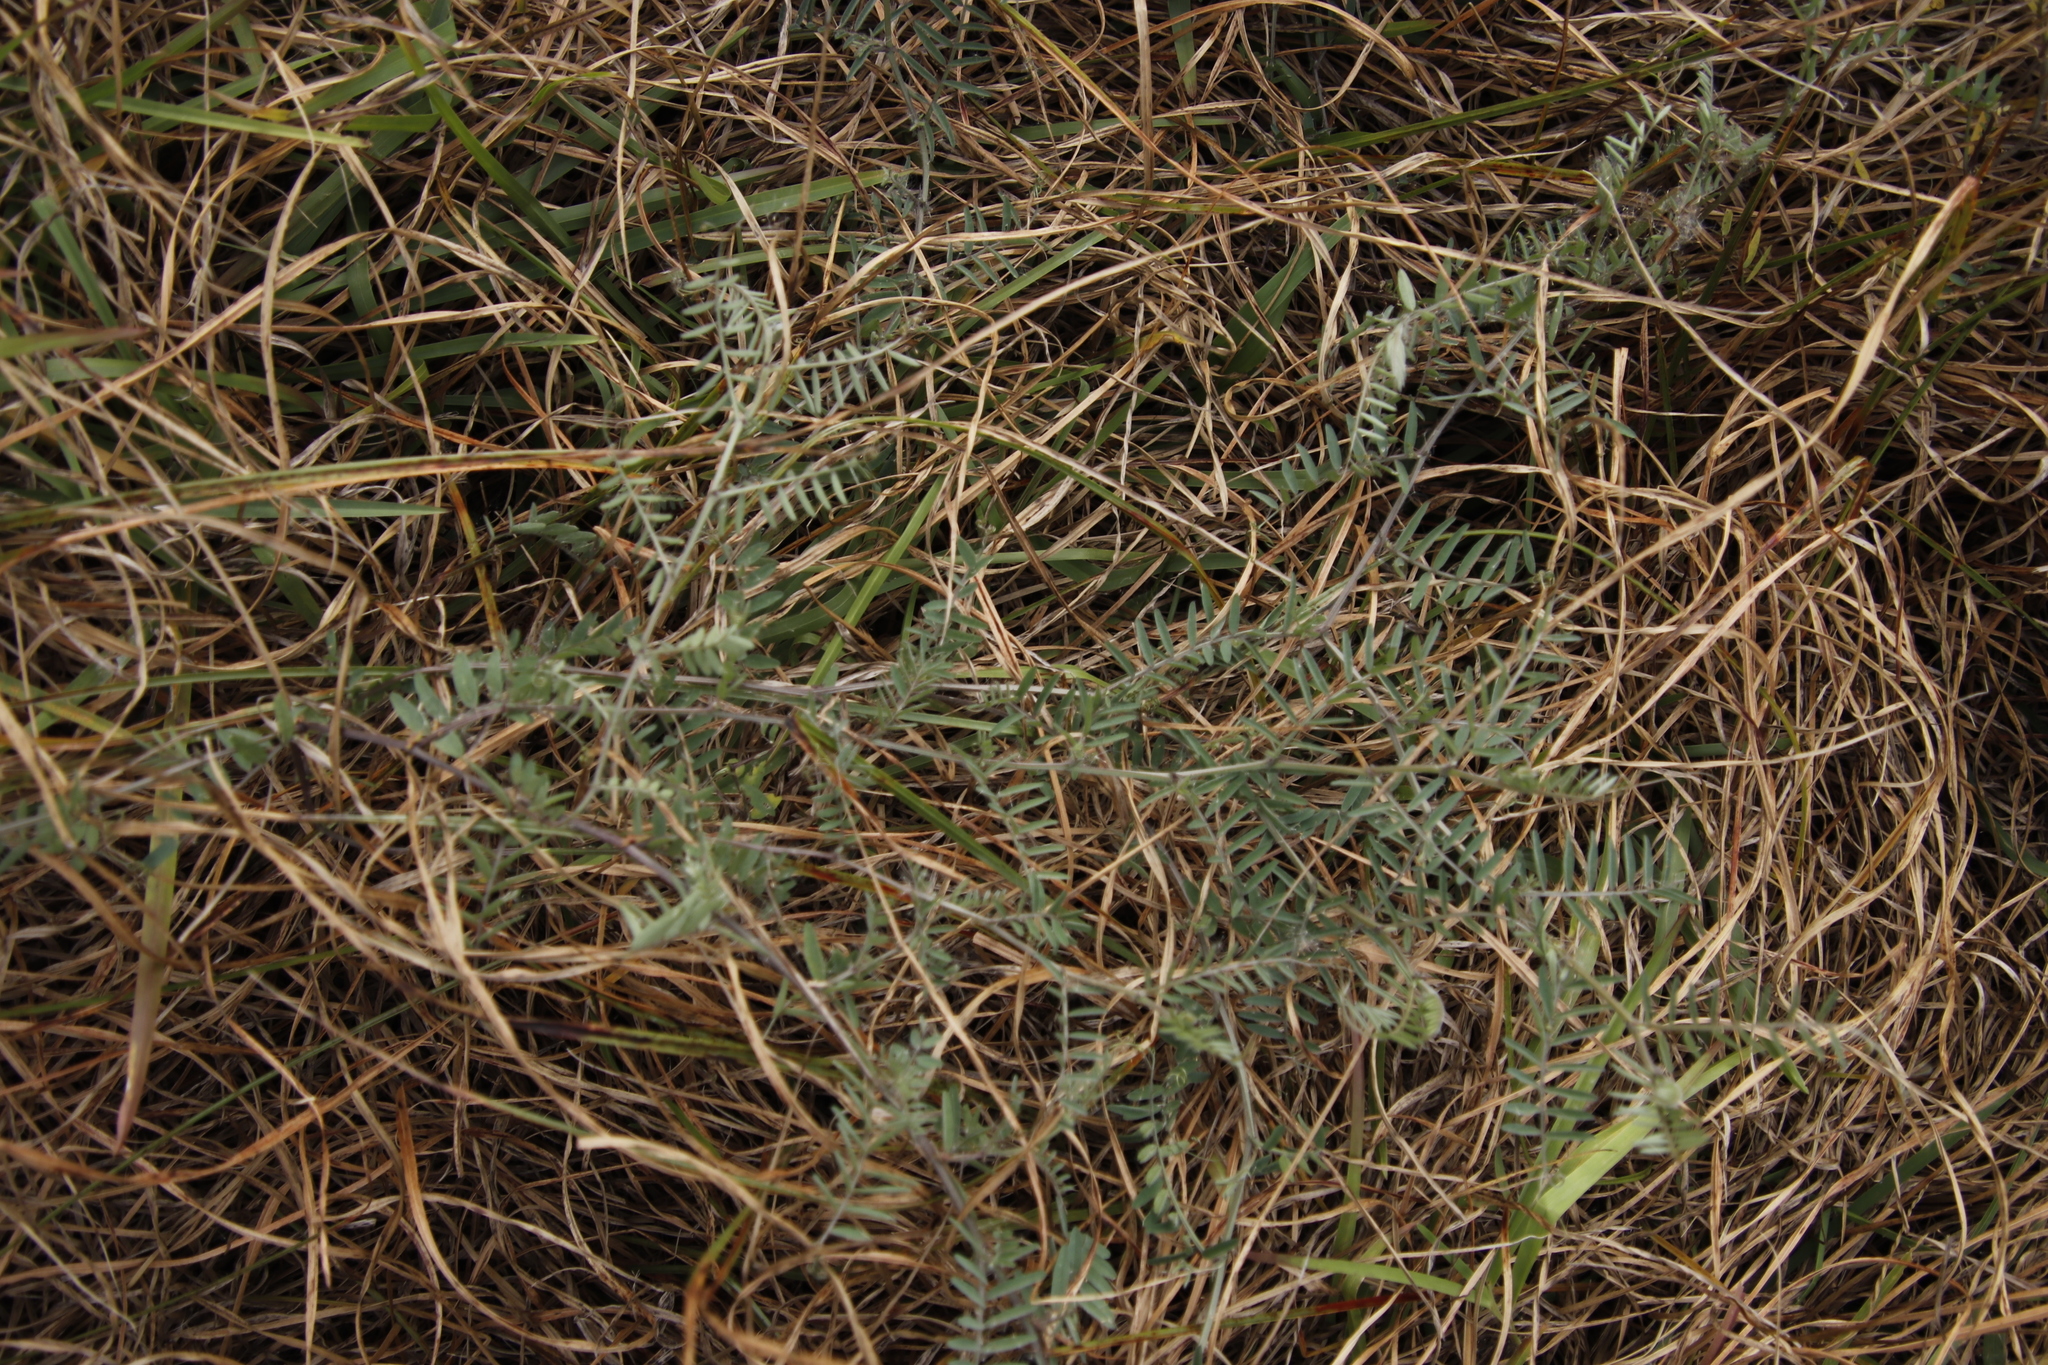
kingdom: Plantae
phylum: Tracheophyta
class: Magnoliopsida
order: Fabales
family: Fabaceae
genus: Vicia
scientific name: Vicia sativa
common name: Garden vetch
